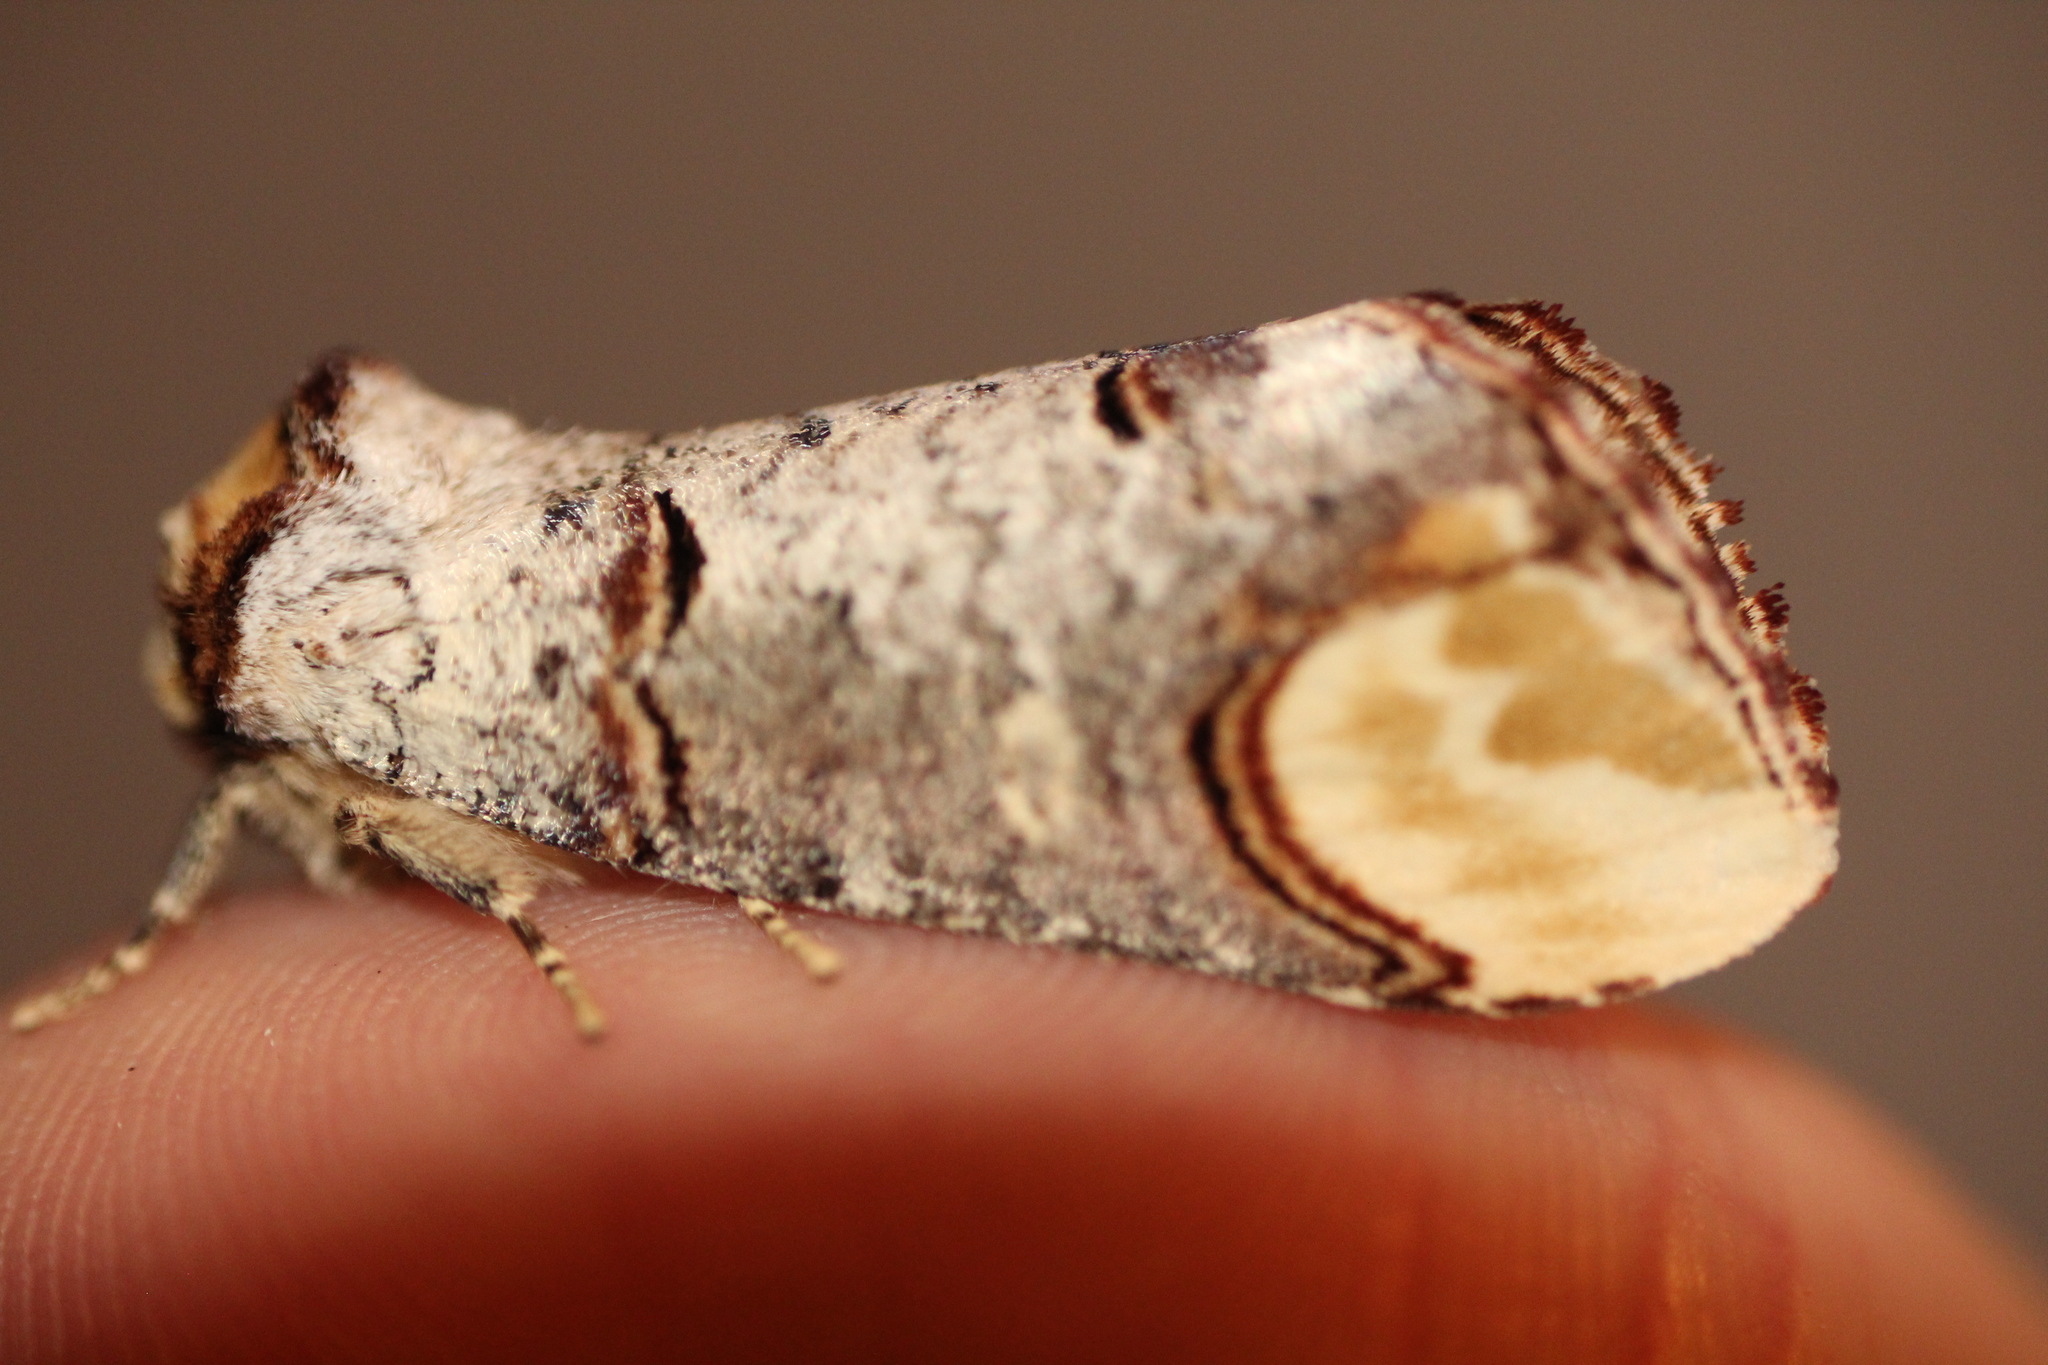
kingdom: Animalia
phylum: Arthropoda
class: Insecta
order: Lepidoptera
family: Notodontidae
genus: Phalera
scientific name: Phalera bucephala
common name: Buff-tip
